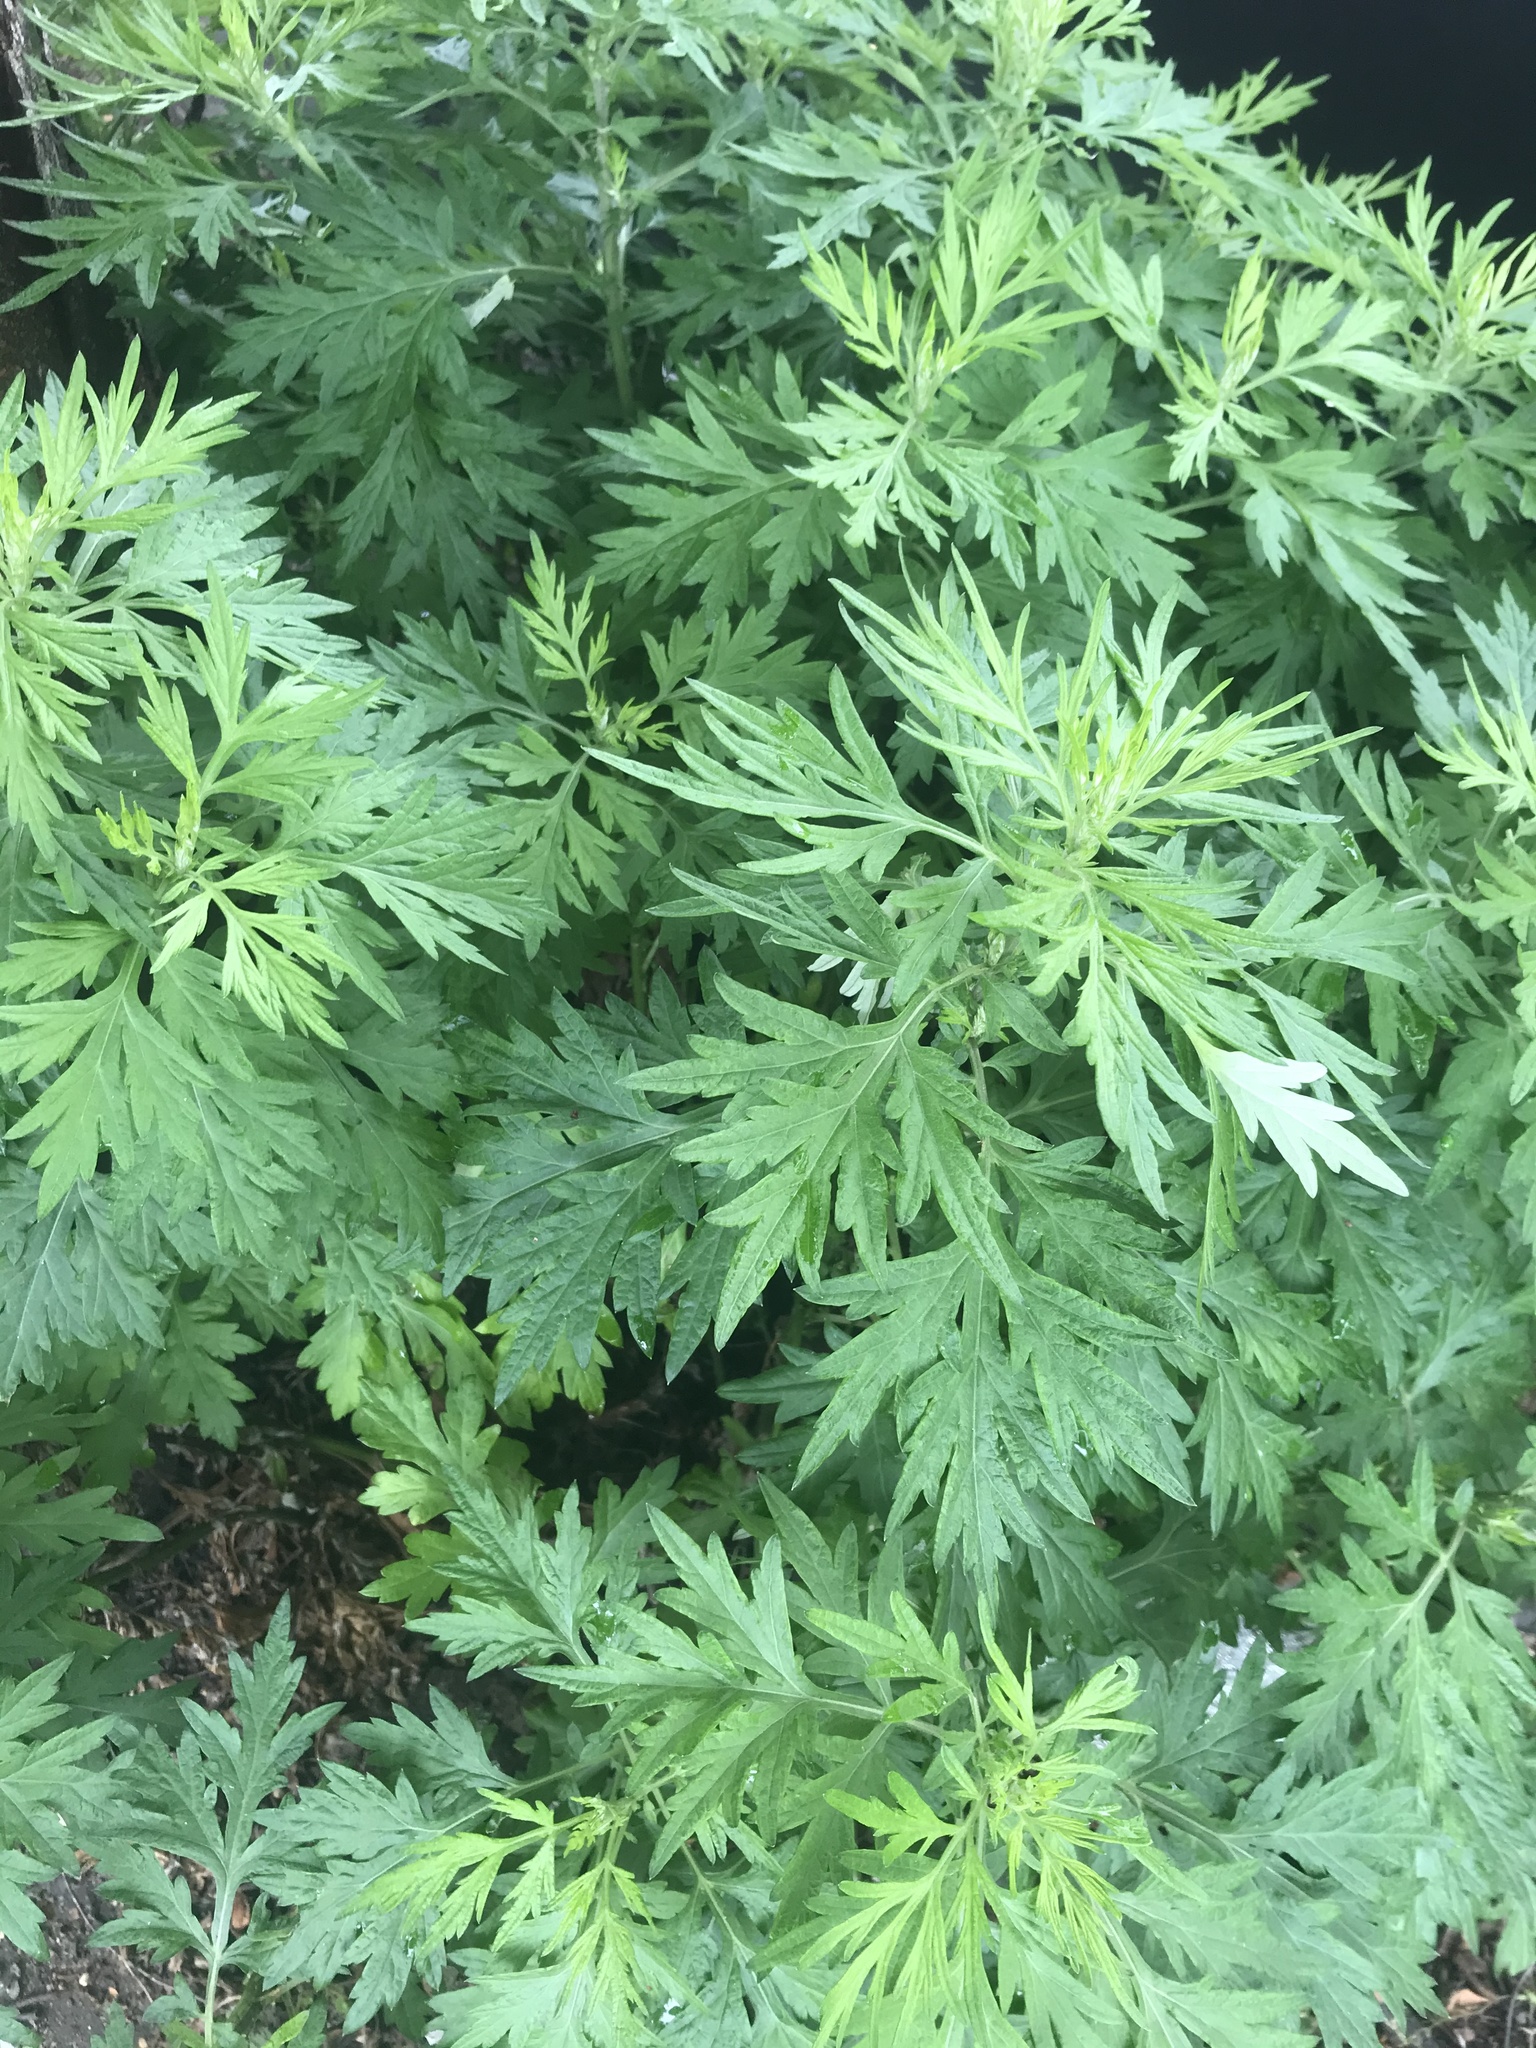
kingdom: Plantae
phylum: Tracheophyta
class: Magnoliopsida
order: Asterales
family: Asteraceae
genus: Artemisia
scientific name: Artemisia vulgaris
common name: Mugwort
